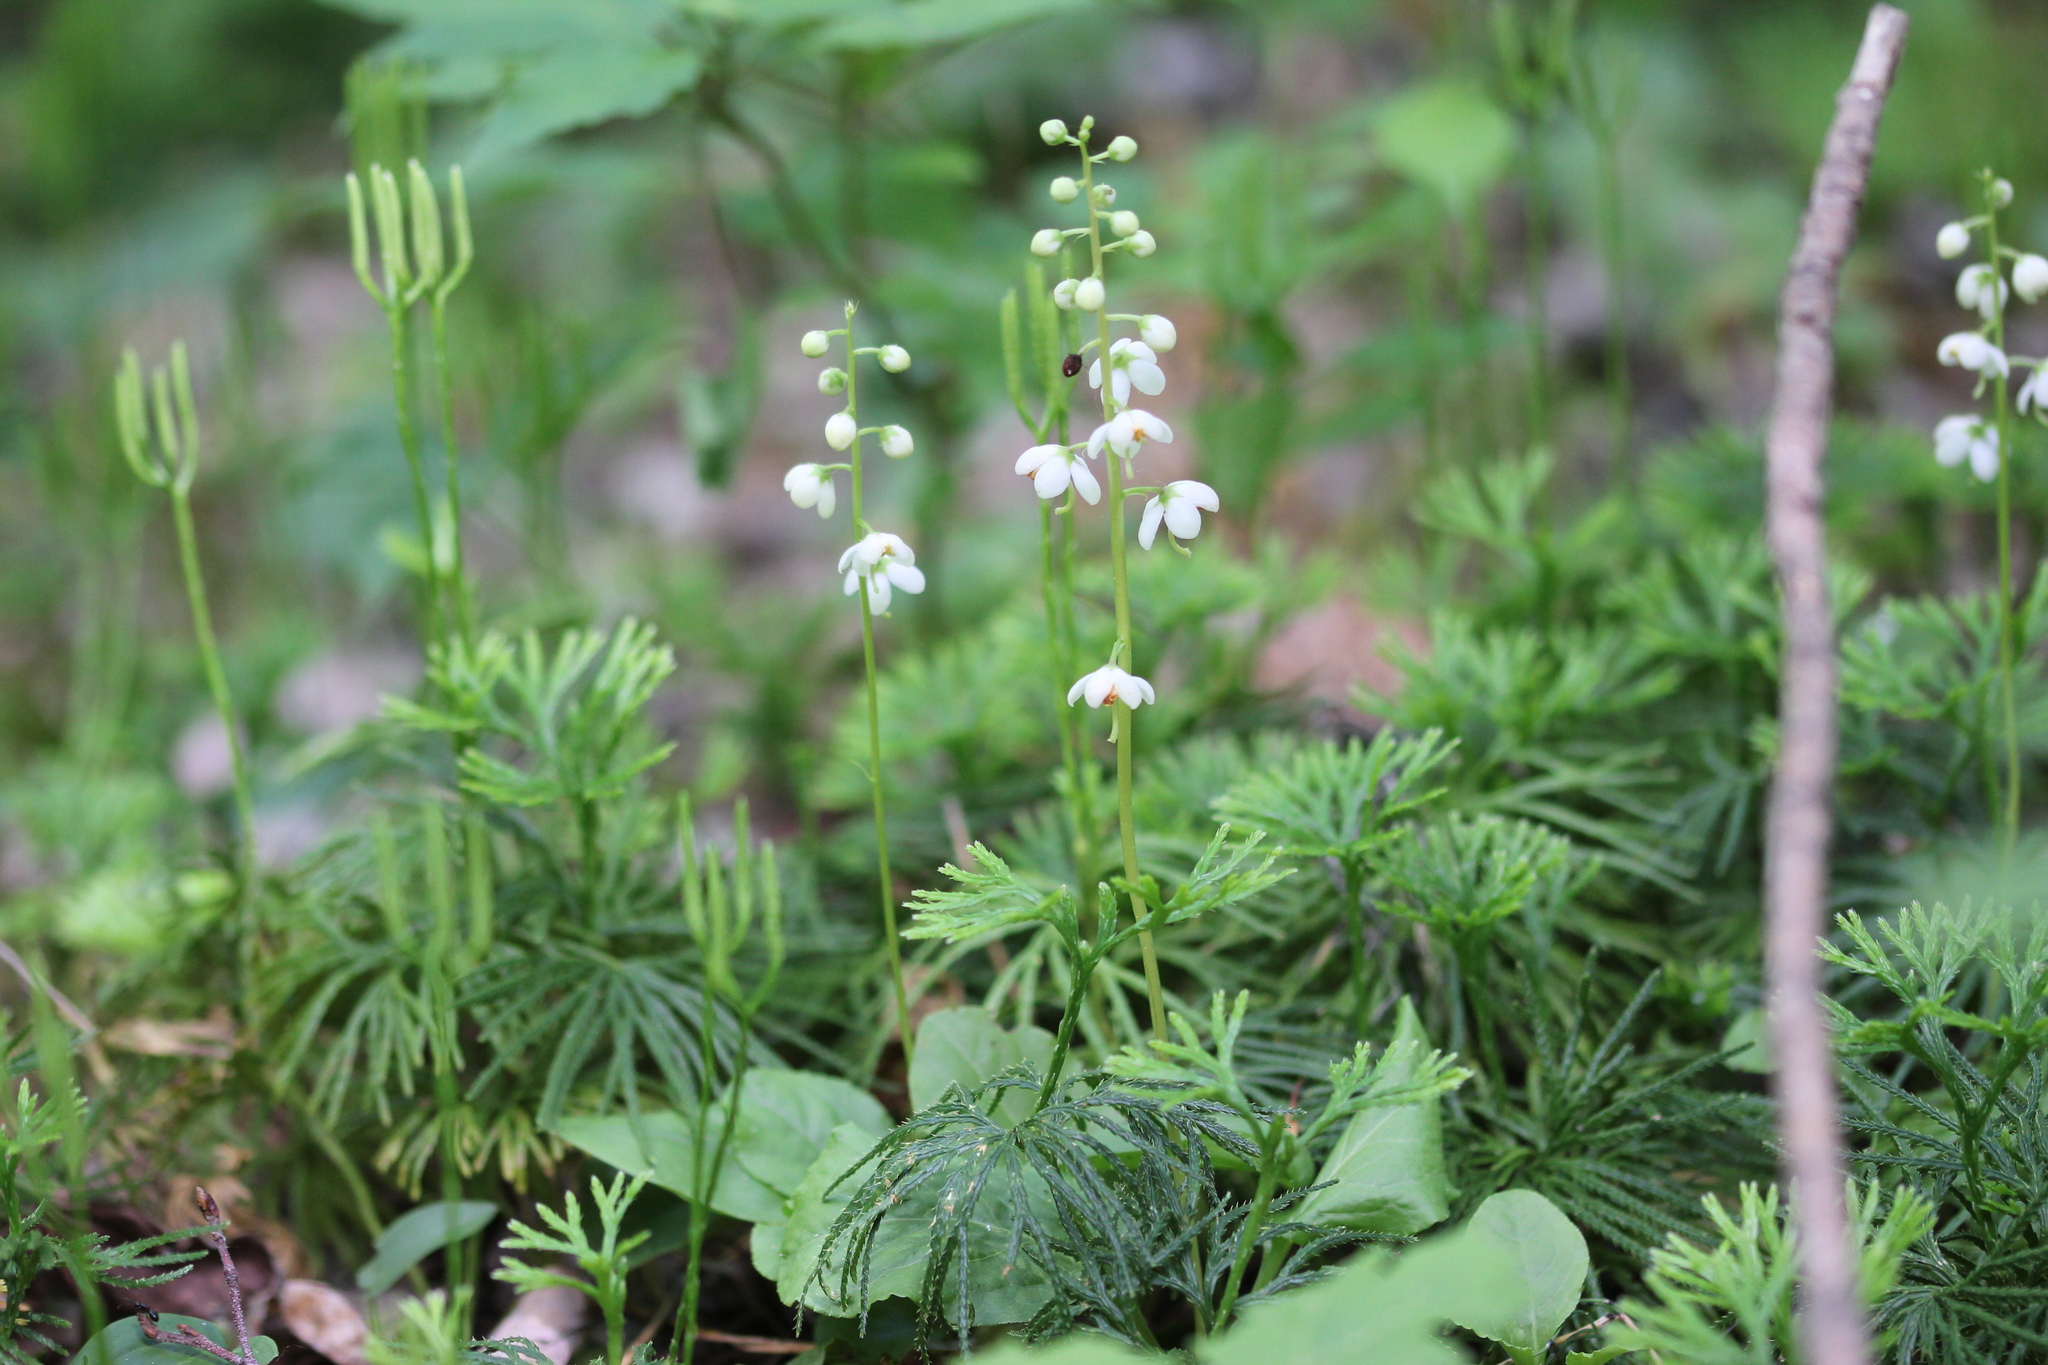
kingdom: Plantae
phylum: Tracheophyta
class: Magnoliopsida
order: Ericales
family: Ericaceae
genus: Pyrola
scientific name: Pyrola elliptica
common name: Shinleaf
